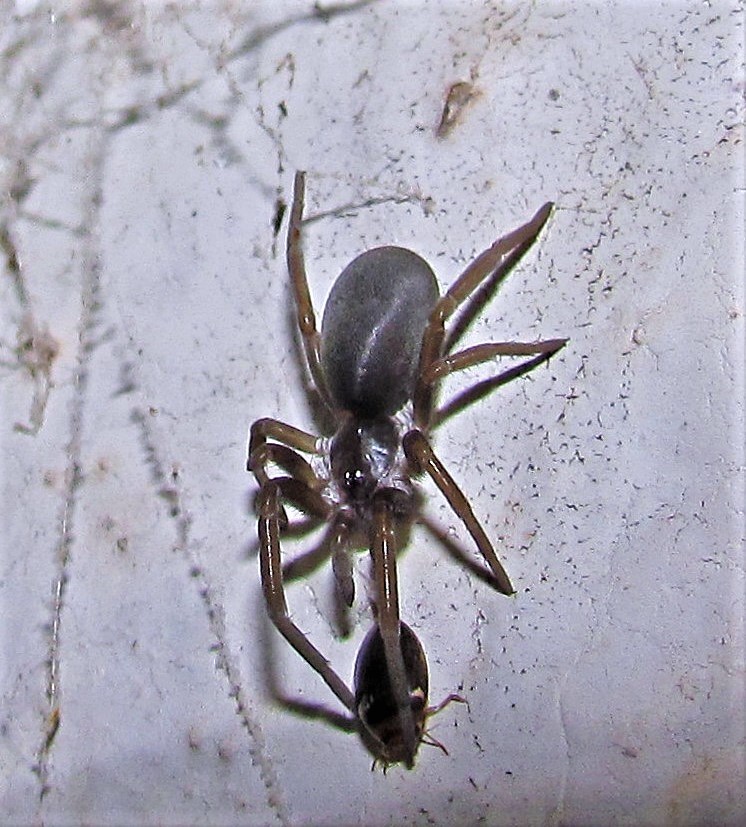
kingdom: Animalia
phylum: Arthropoda
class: Arachnida
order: Araneae
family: Filistatidae
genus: Kukulcania
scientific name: Kukulcania hibernalis
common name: Crevice weaver
